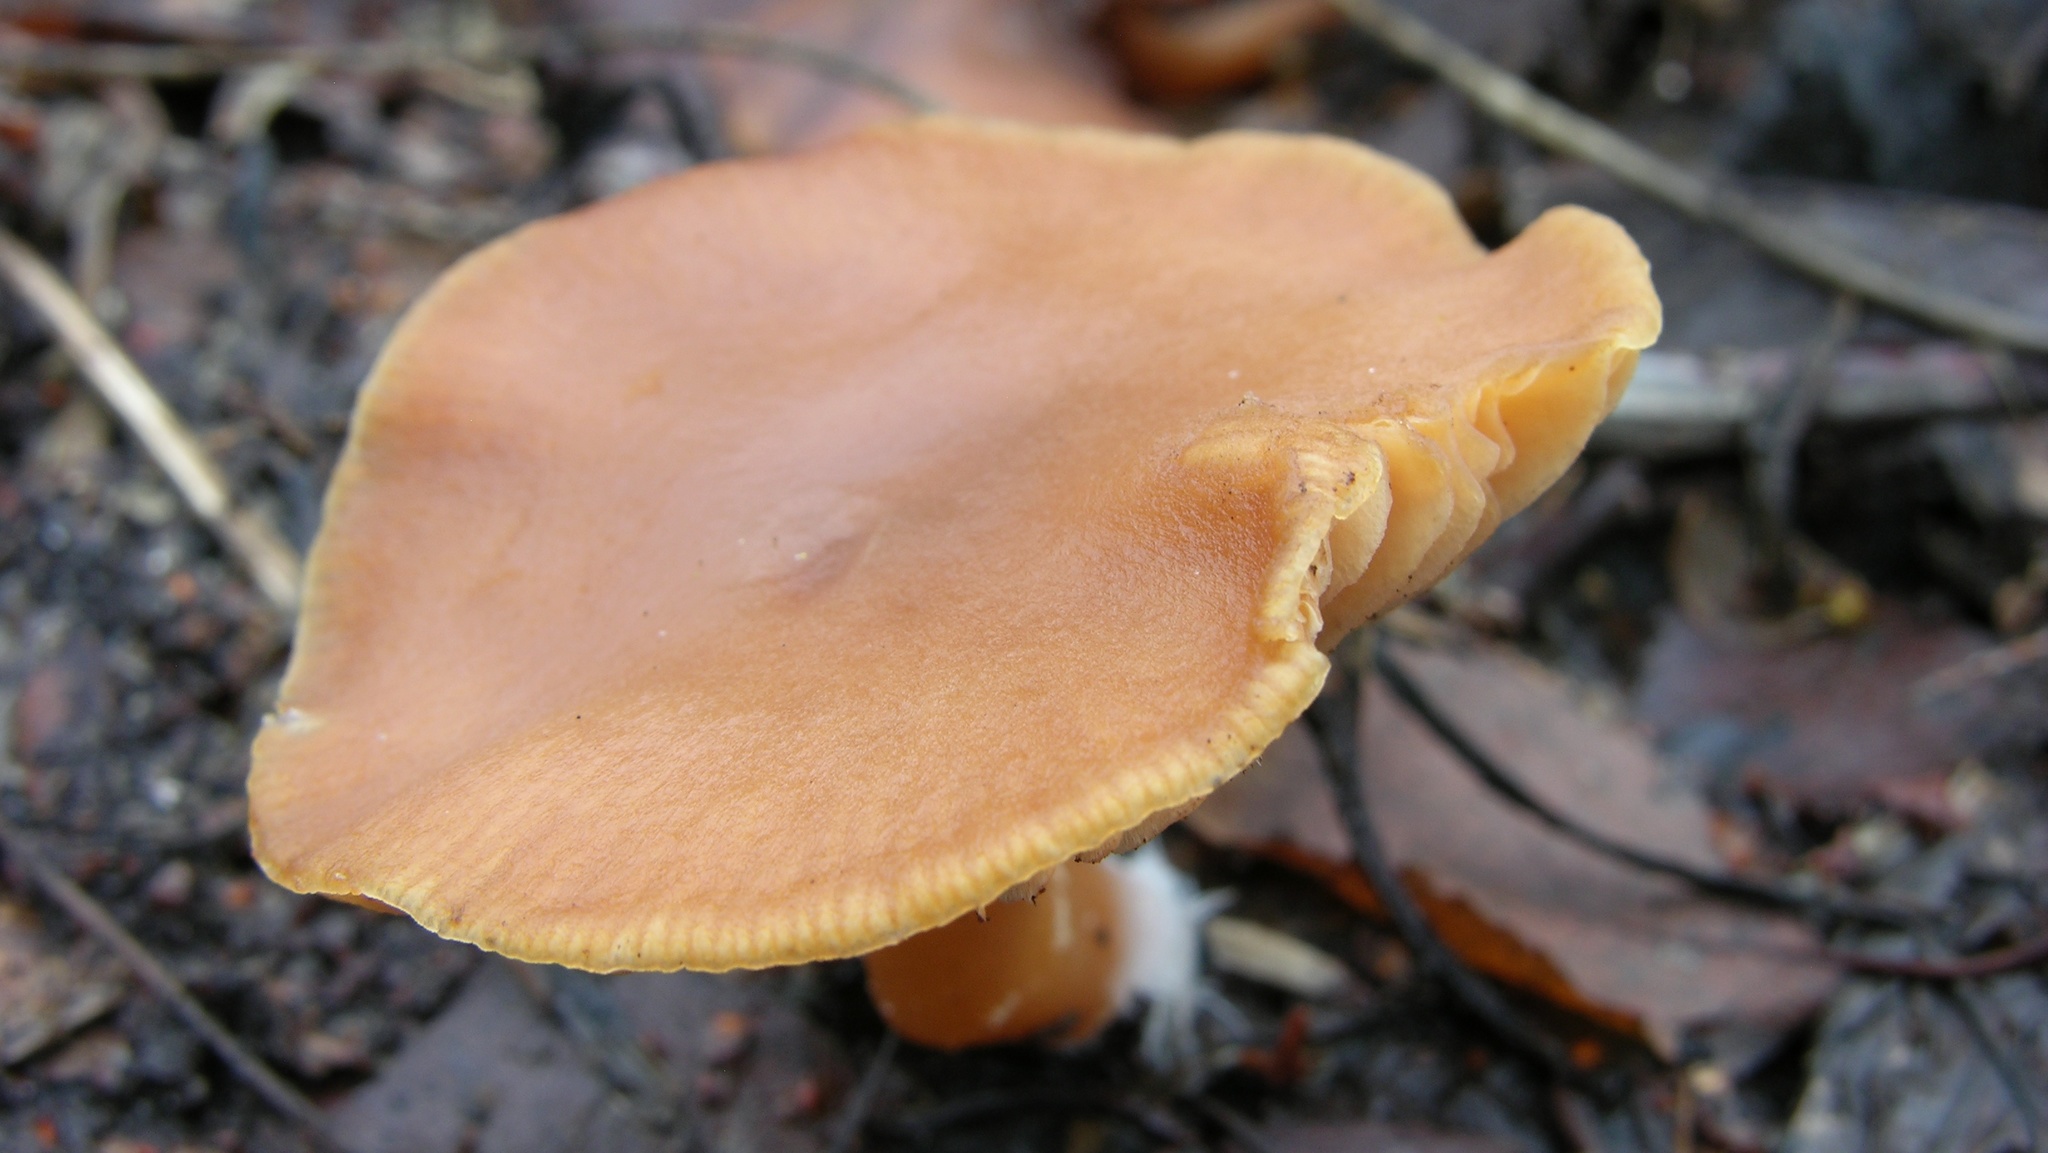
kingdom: Fungi
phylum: Basidiomycota
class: Agaricomycetes
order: Agaricales
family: Tubariaceae
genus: Tubaria
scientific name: Tubaria furfuracea
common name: Scurfy twiglet
